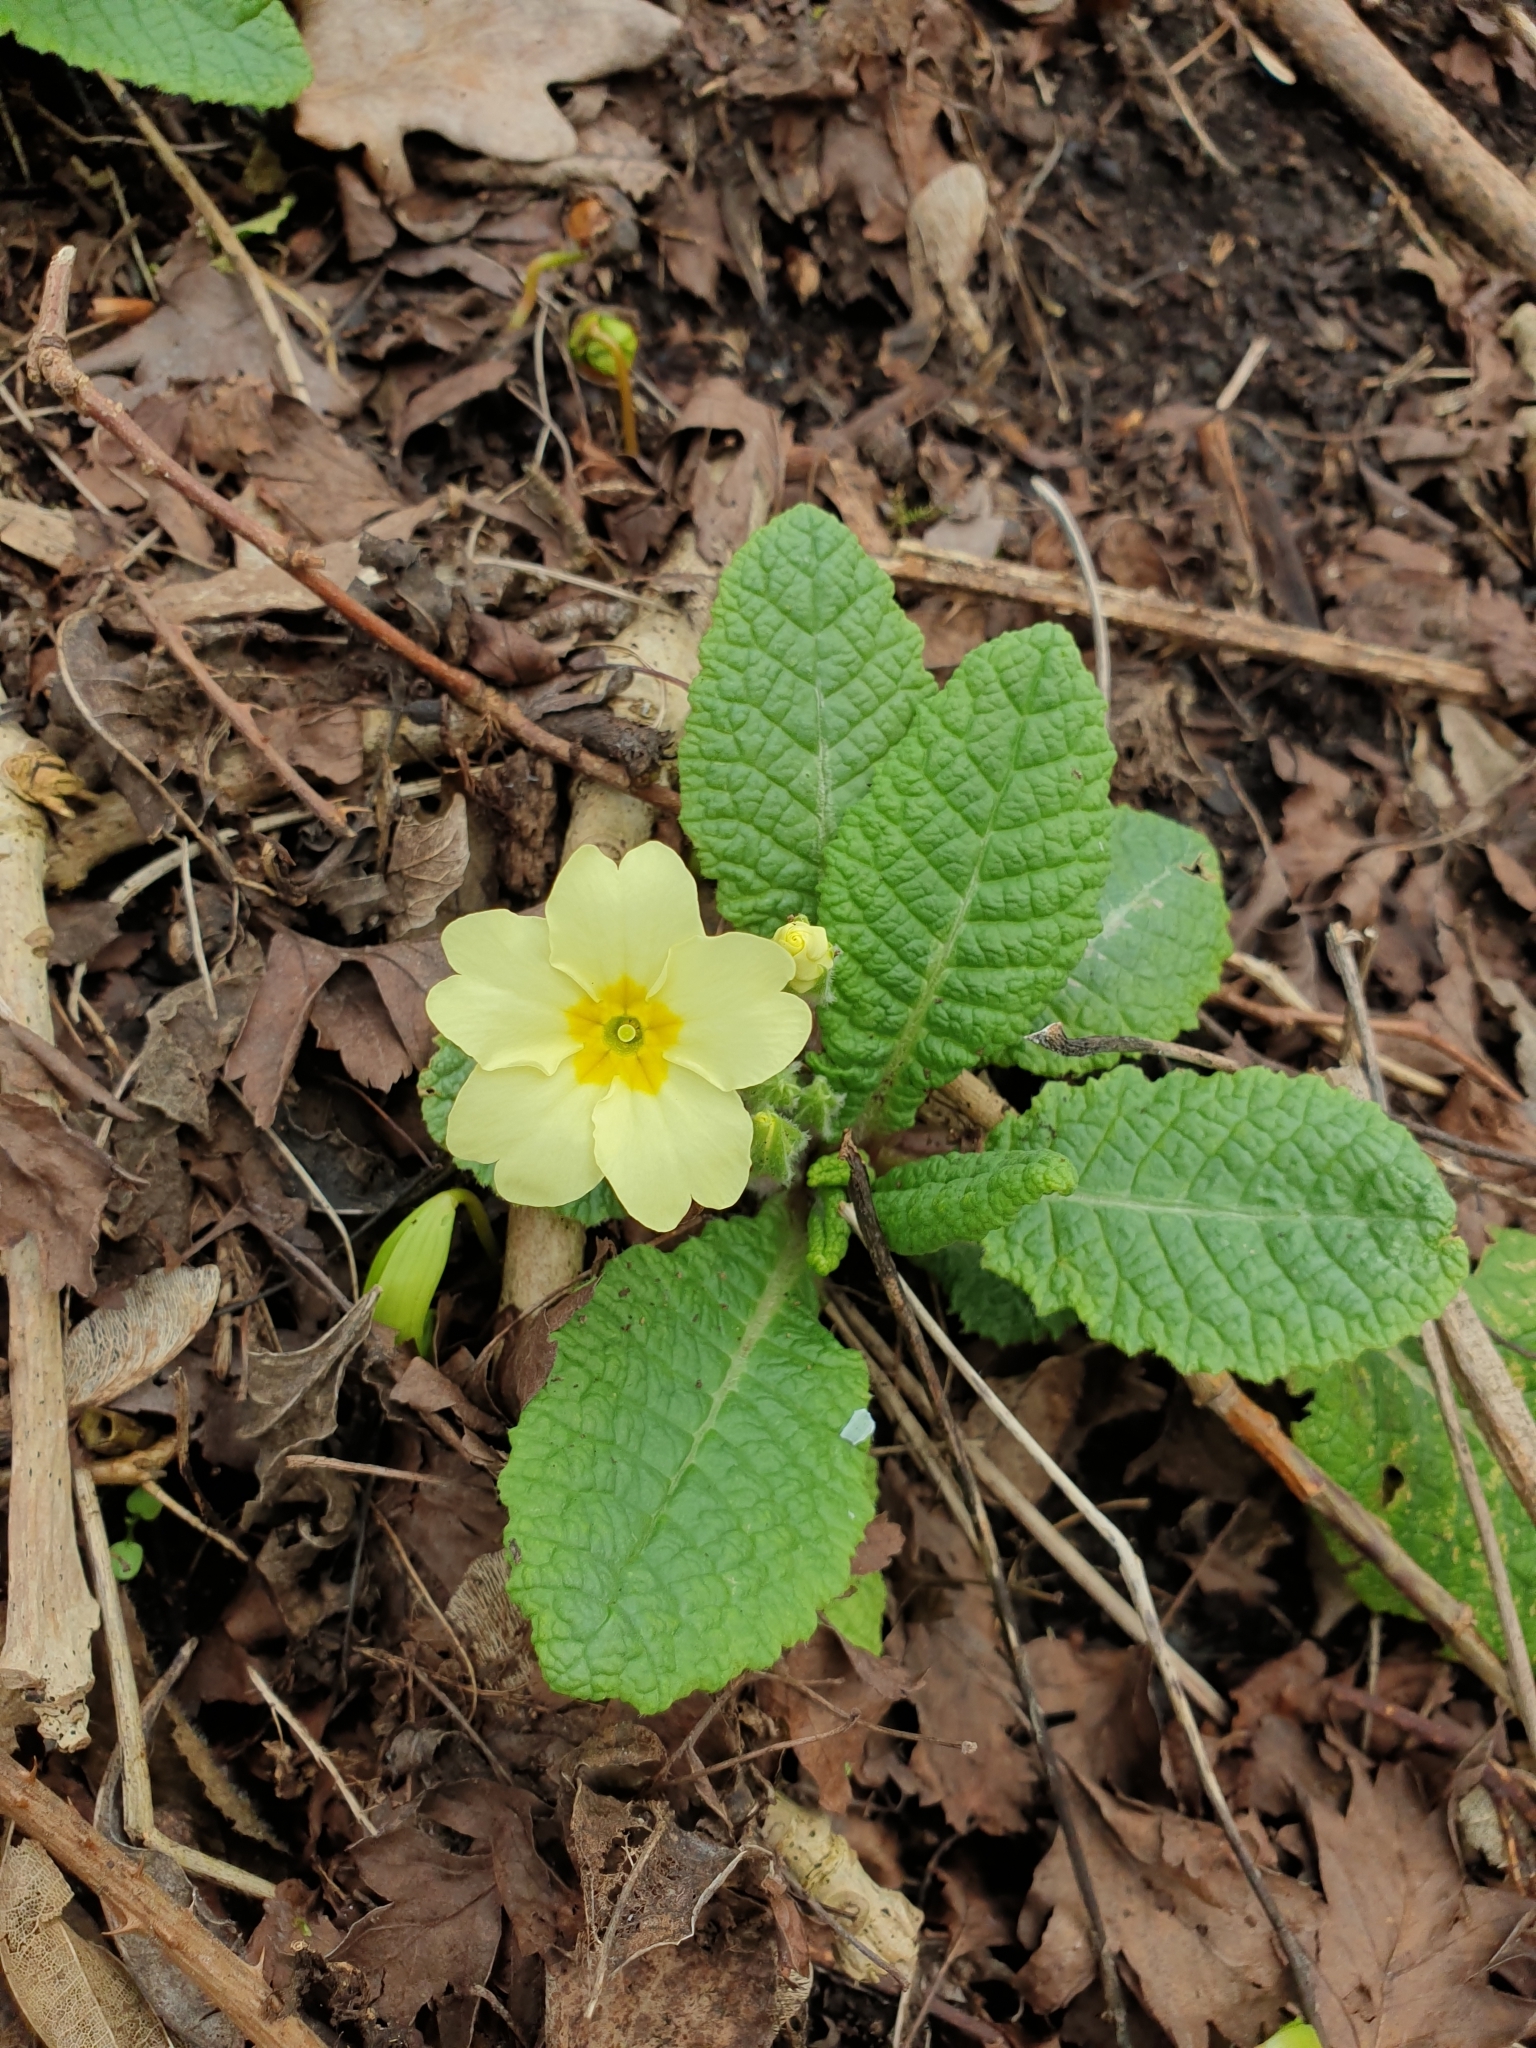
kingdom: Plantae
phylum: Tracheophyta
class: Magnoliopsida
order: Ericales
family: Primulaceae
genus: Primula
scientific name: Primula vulgaris
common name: Primrose
